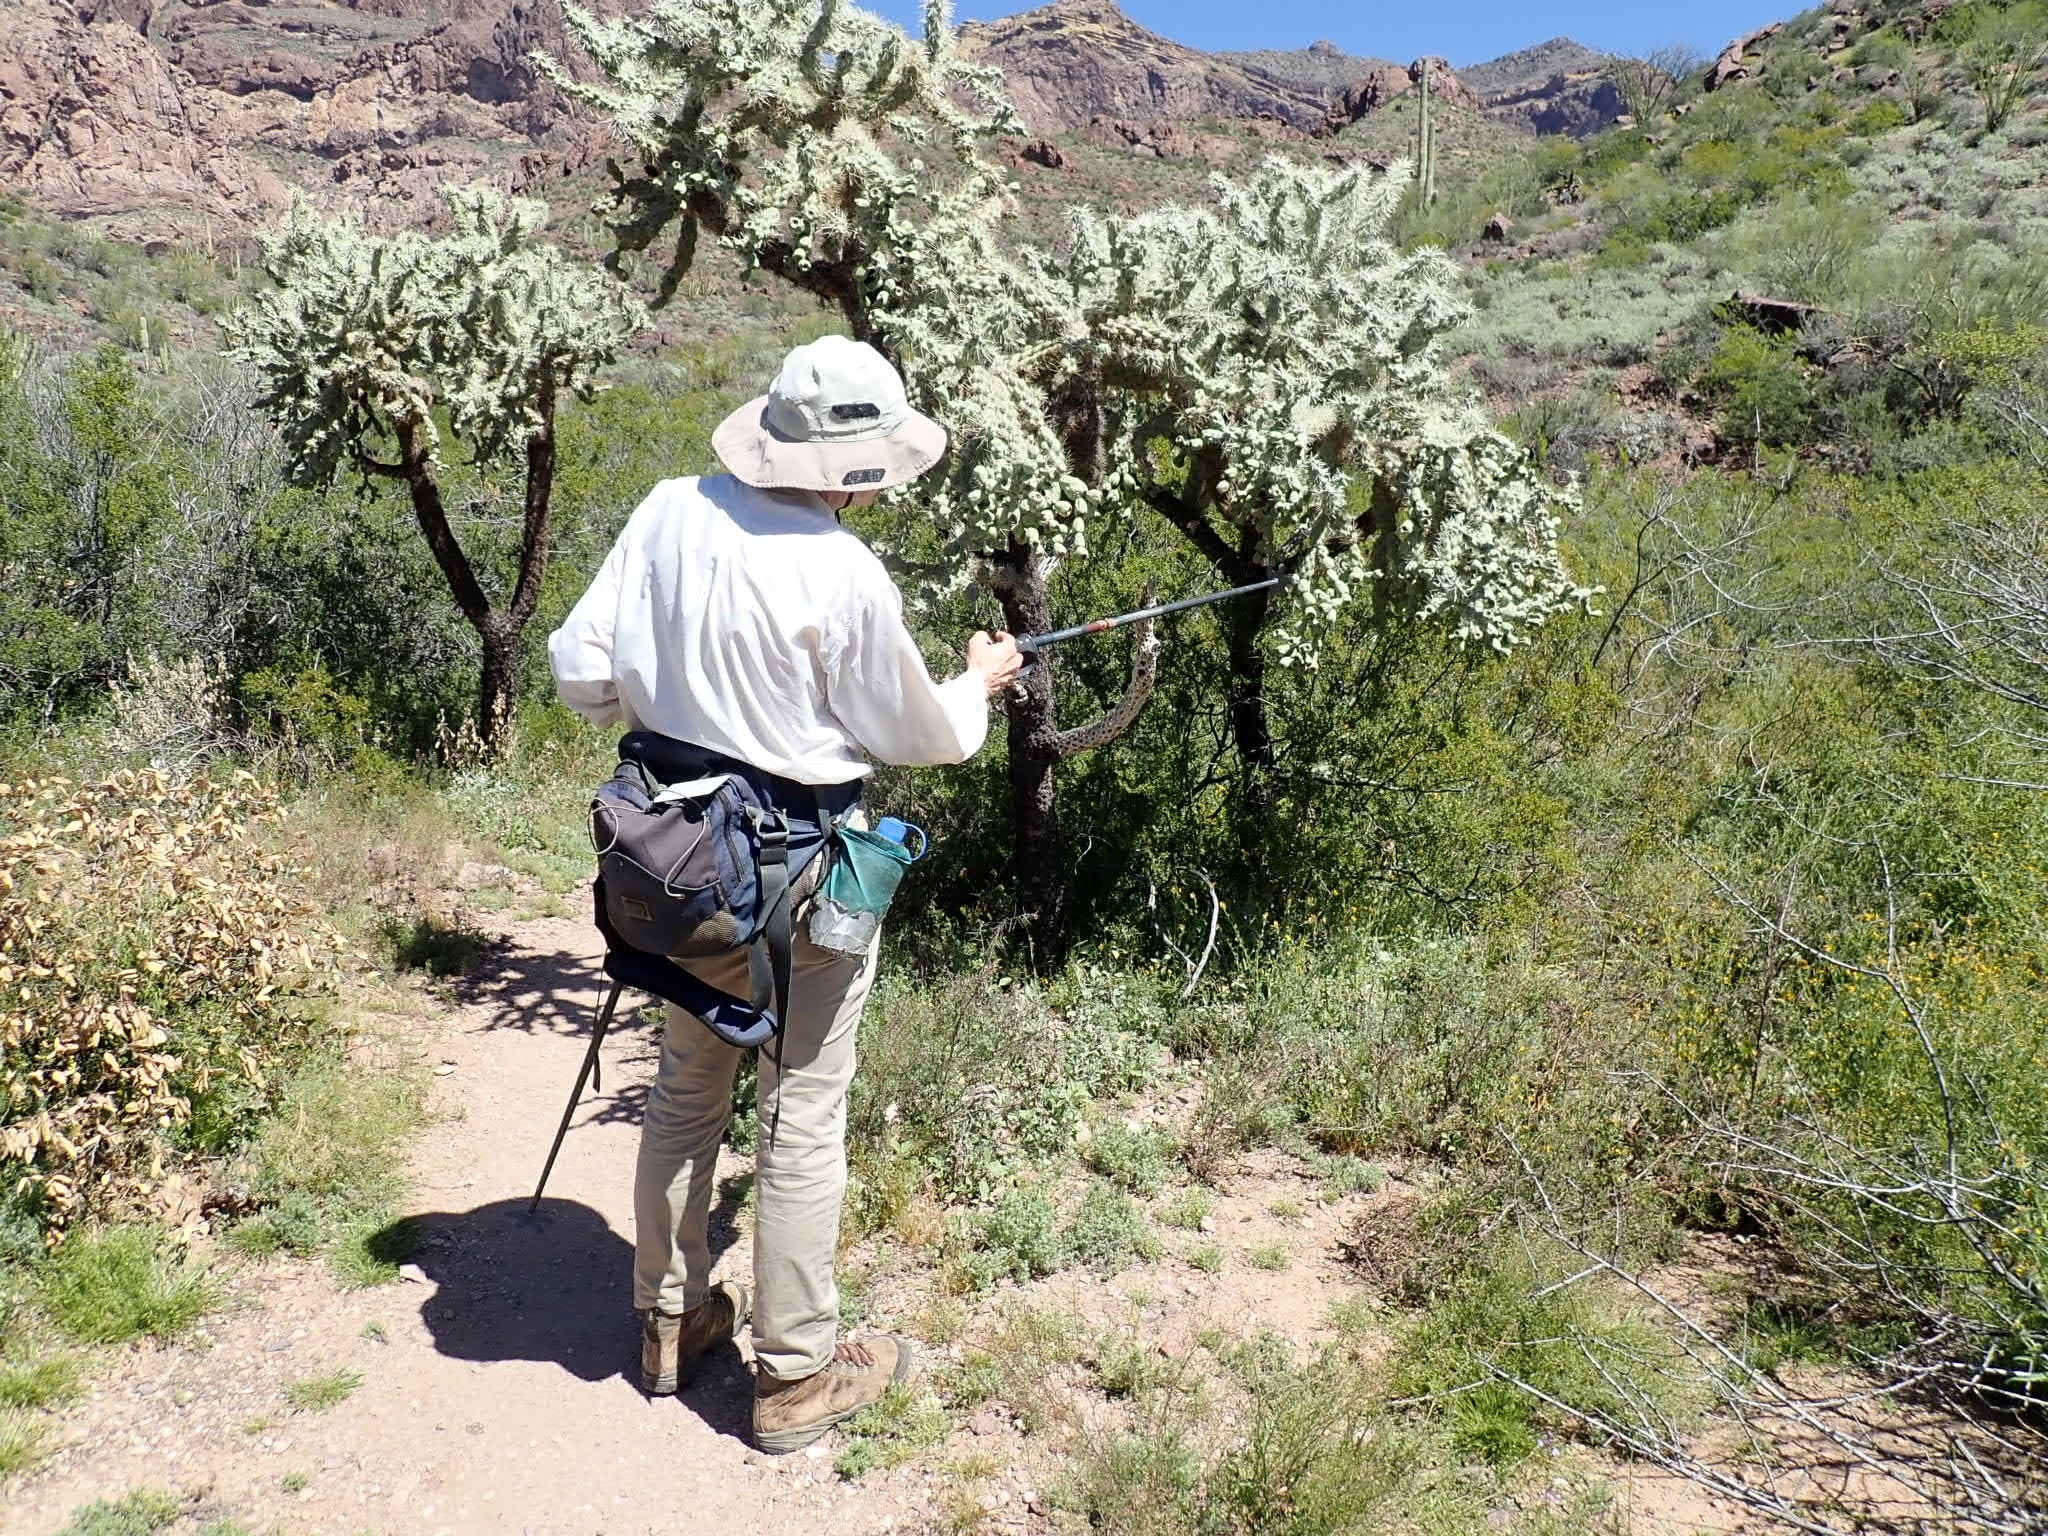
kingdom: Plantae
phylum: Tracheophyta
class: Magnoliopsida
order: Caryophyllales
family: Cactaceae
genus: Cylindropuntia
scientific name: Cylindropuntia fulgida
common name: Jumping cholla
